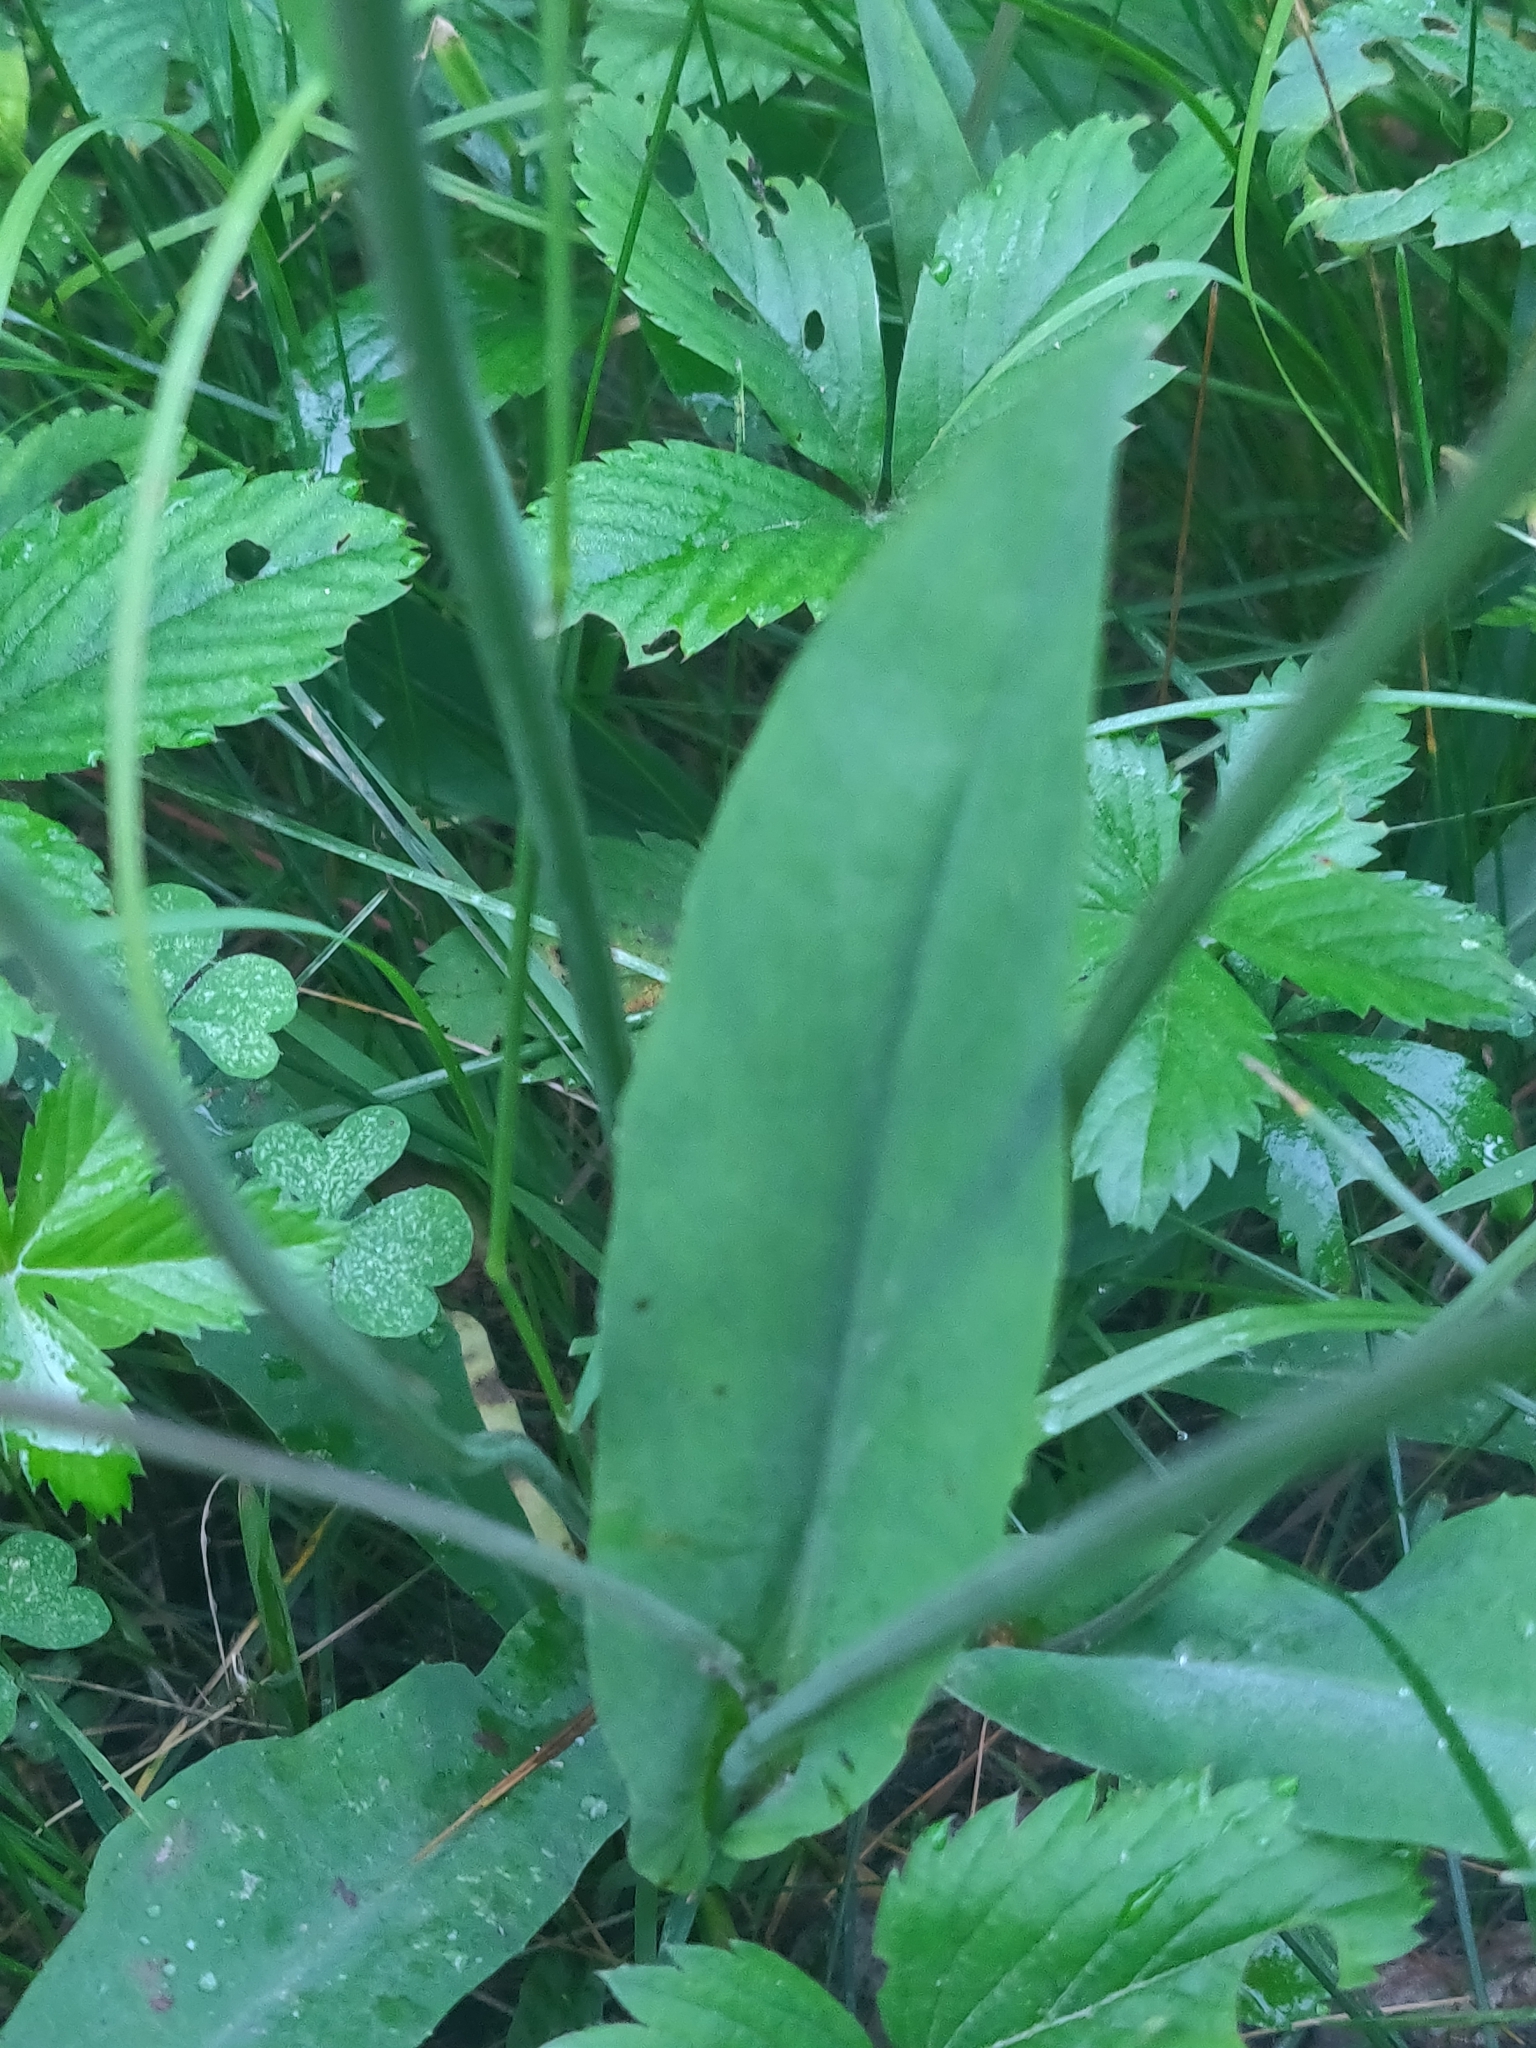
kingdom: Plantae
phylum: Tracheophyta
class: Magnoliopsida
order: Asterales
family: Asteraceae
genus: Krigia
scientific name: Krigia biflora
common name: Orange dwarf-dandelion
